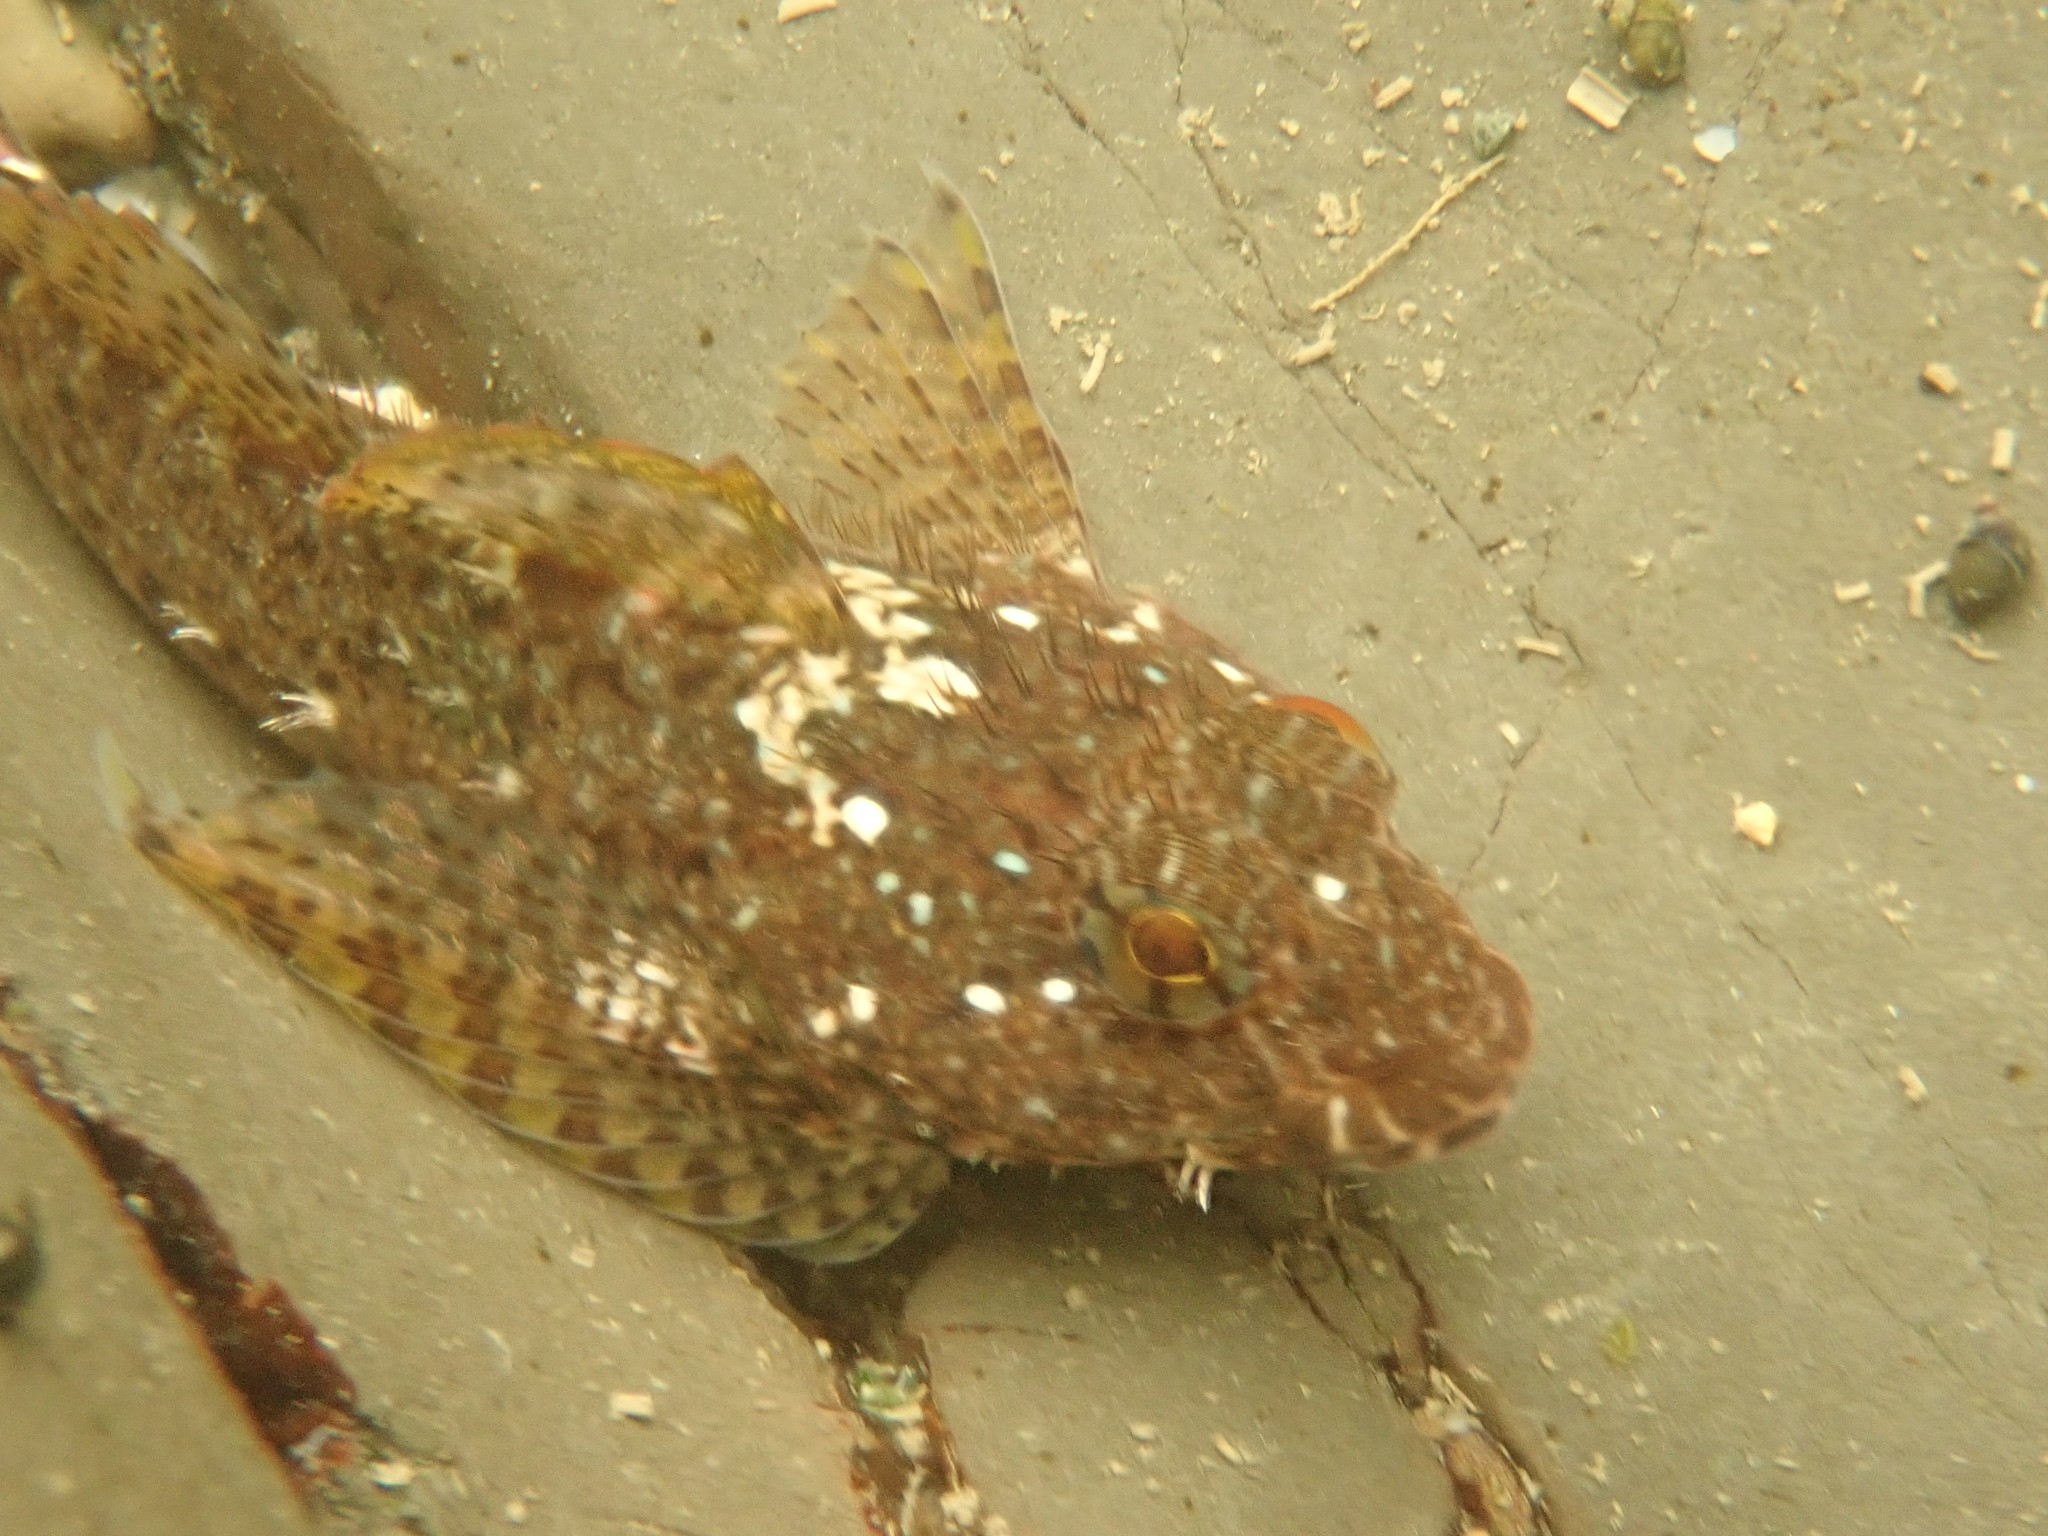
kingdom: Animalia
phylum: Chordata
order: Scorpaeniformes
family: Cottidae
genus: Clinocottus
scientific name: Clinocottus analis
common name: Woolly sculpin
